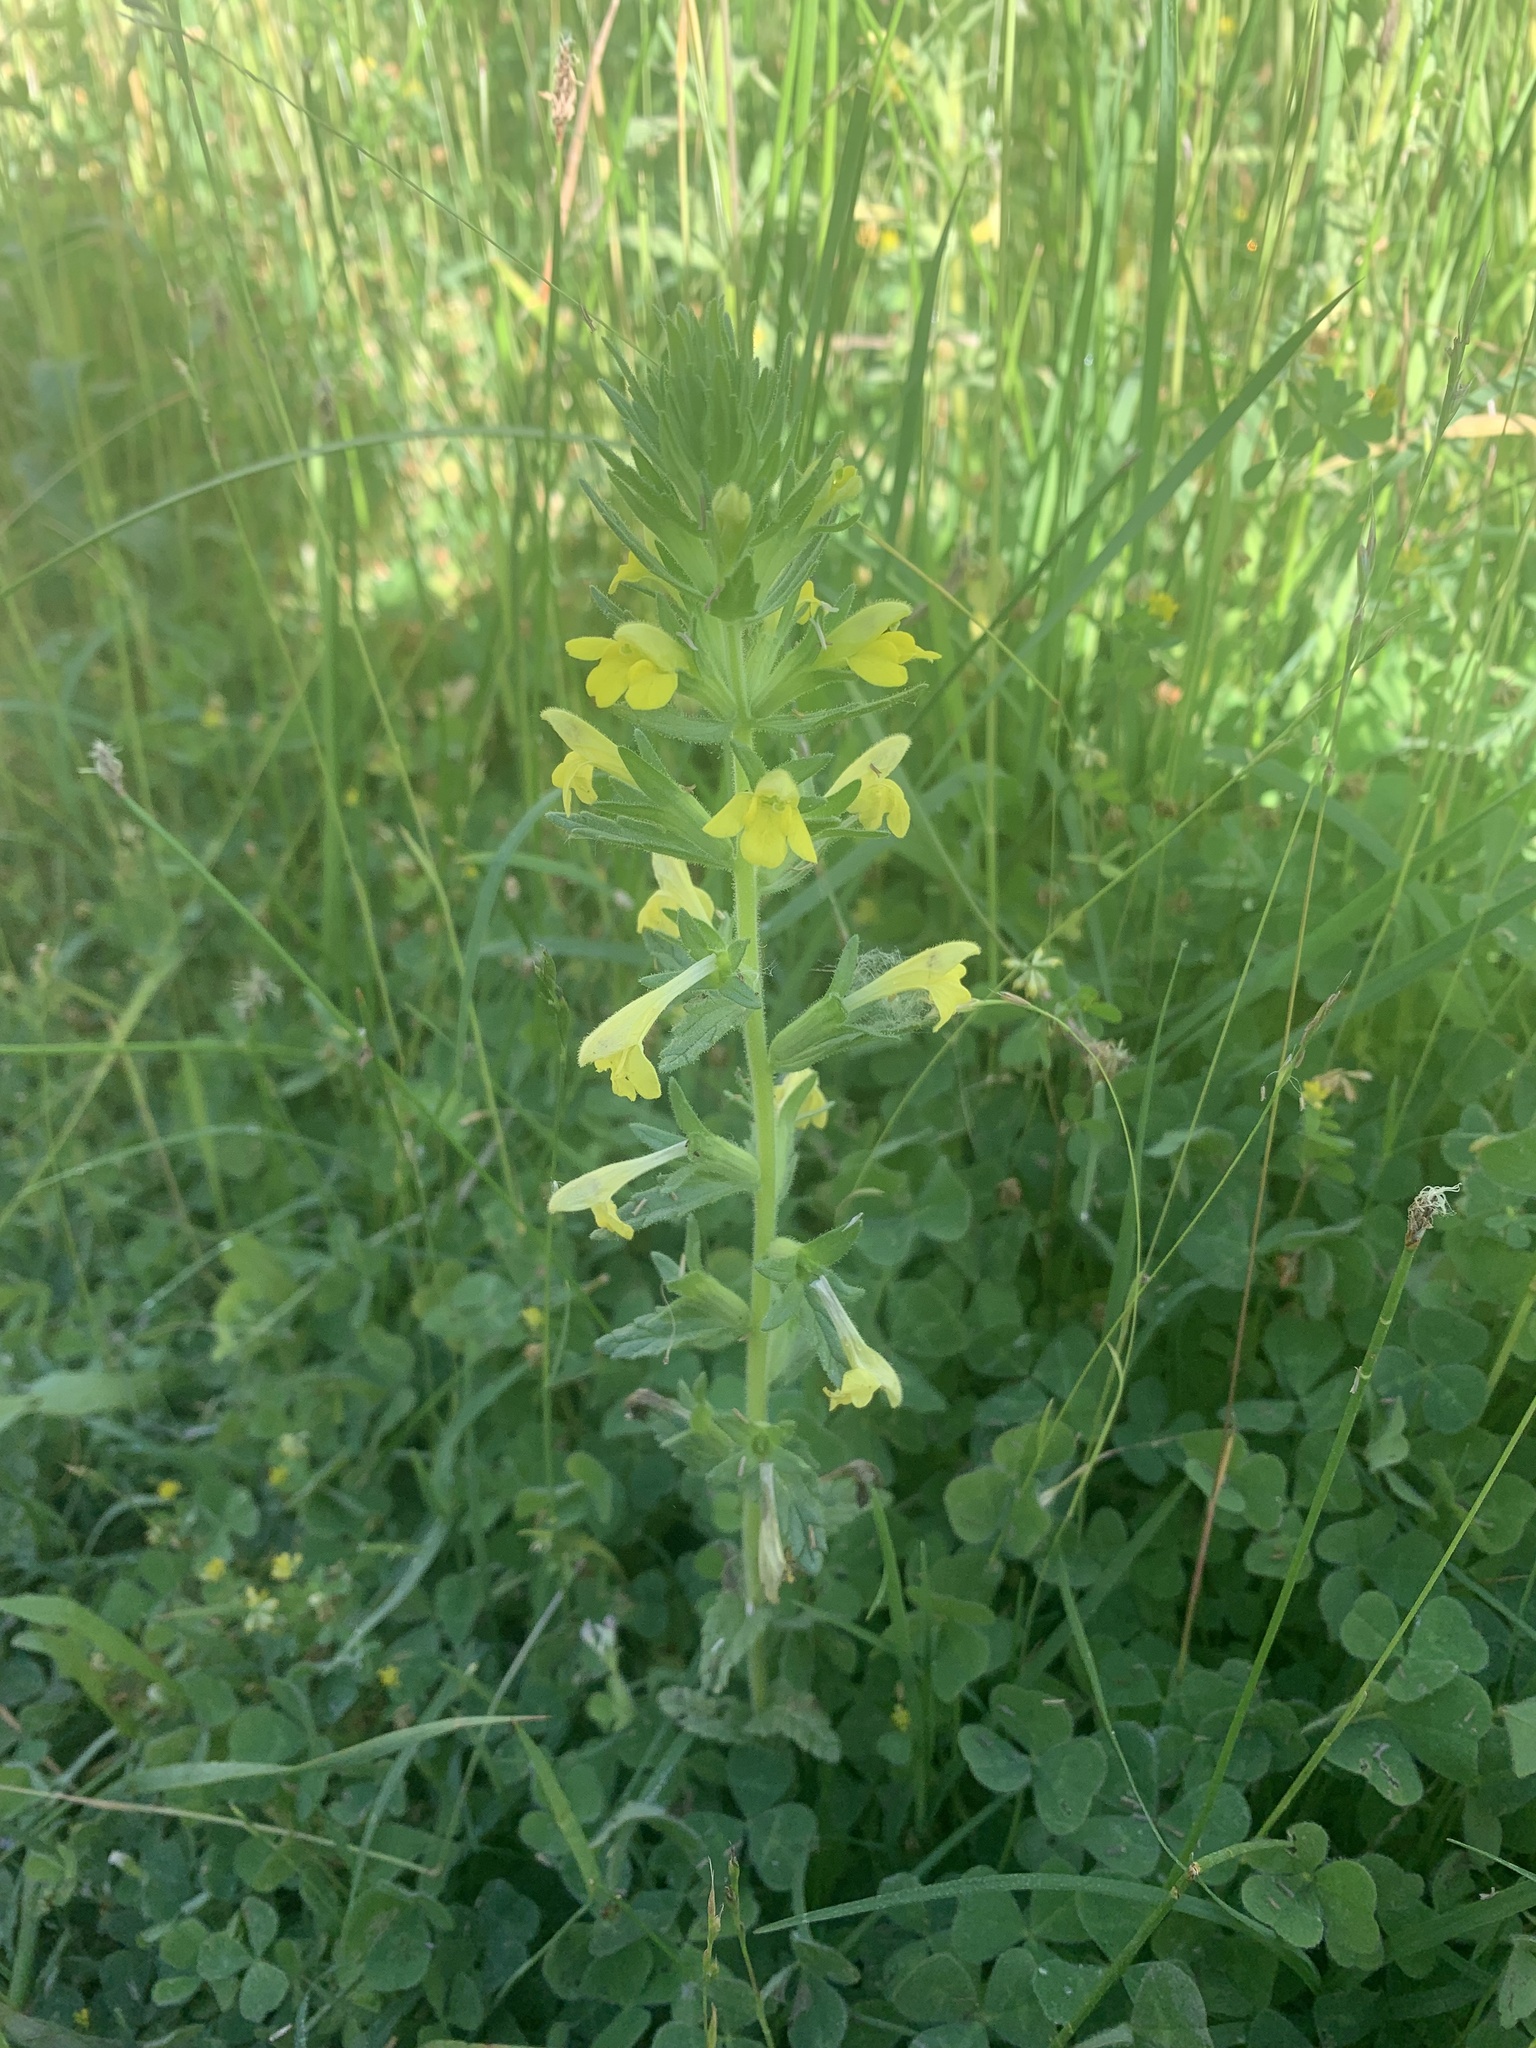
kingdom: Plantae
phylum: Tracheophyta
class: Magnoliopsida
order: Lamiales
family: Orobanchaceae
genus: Bellardia
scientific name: Bellardia viscosa
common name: Sticky parentucellia
